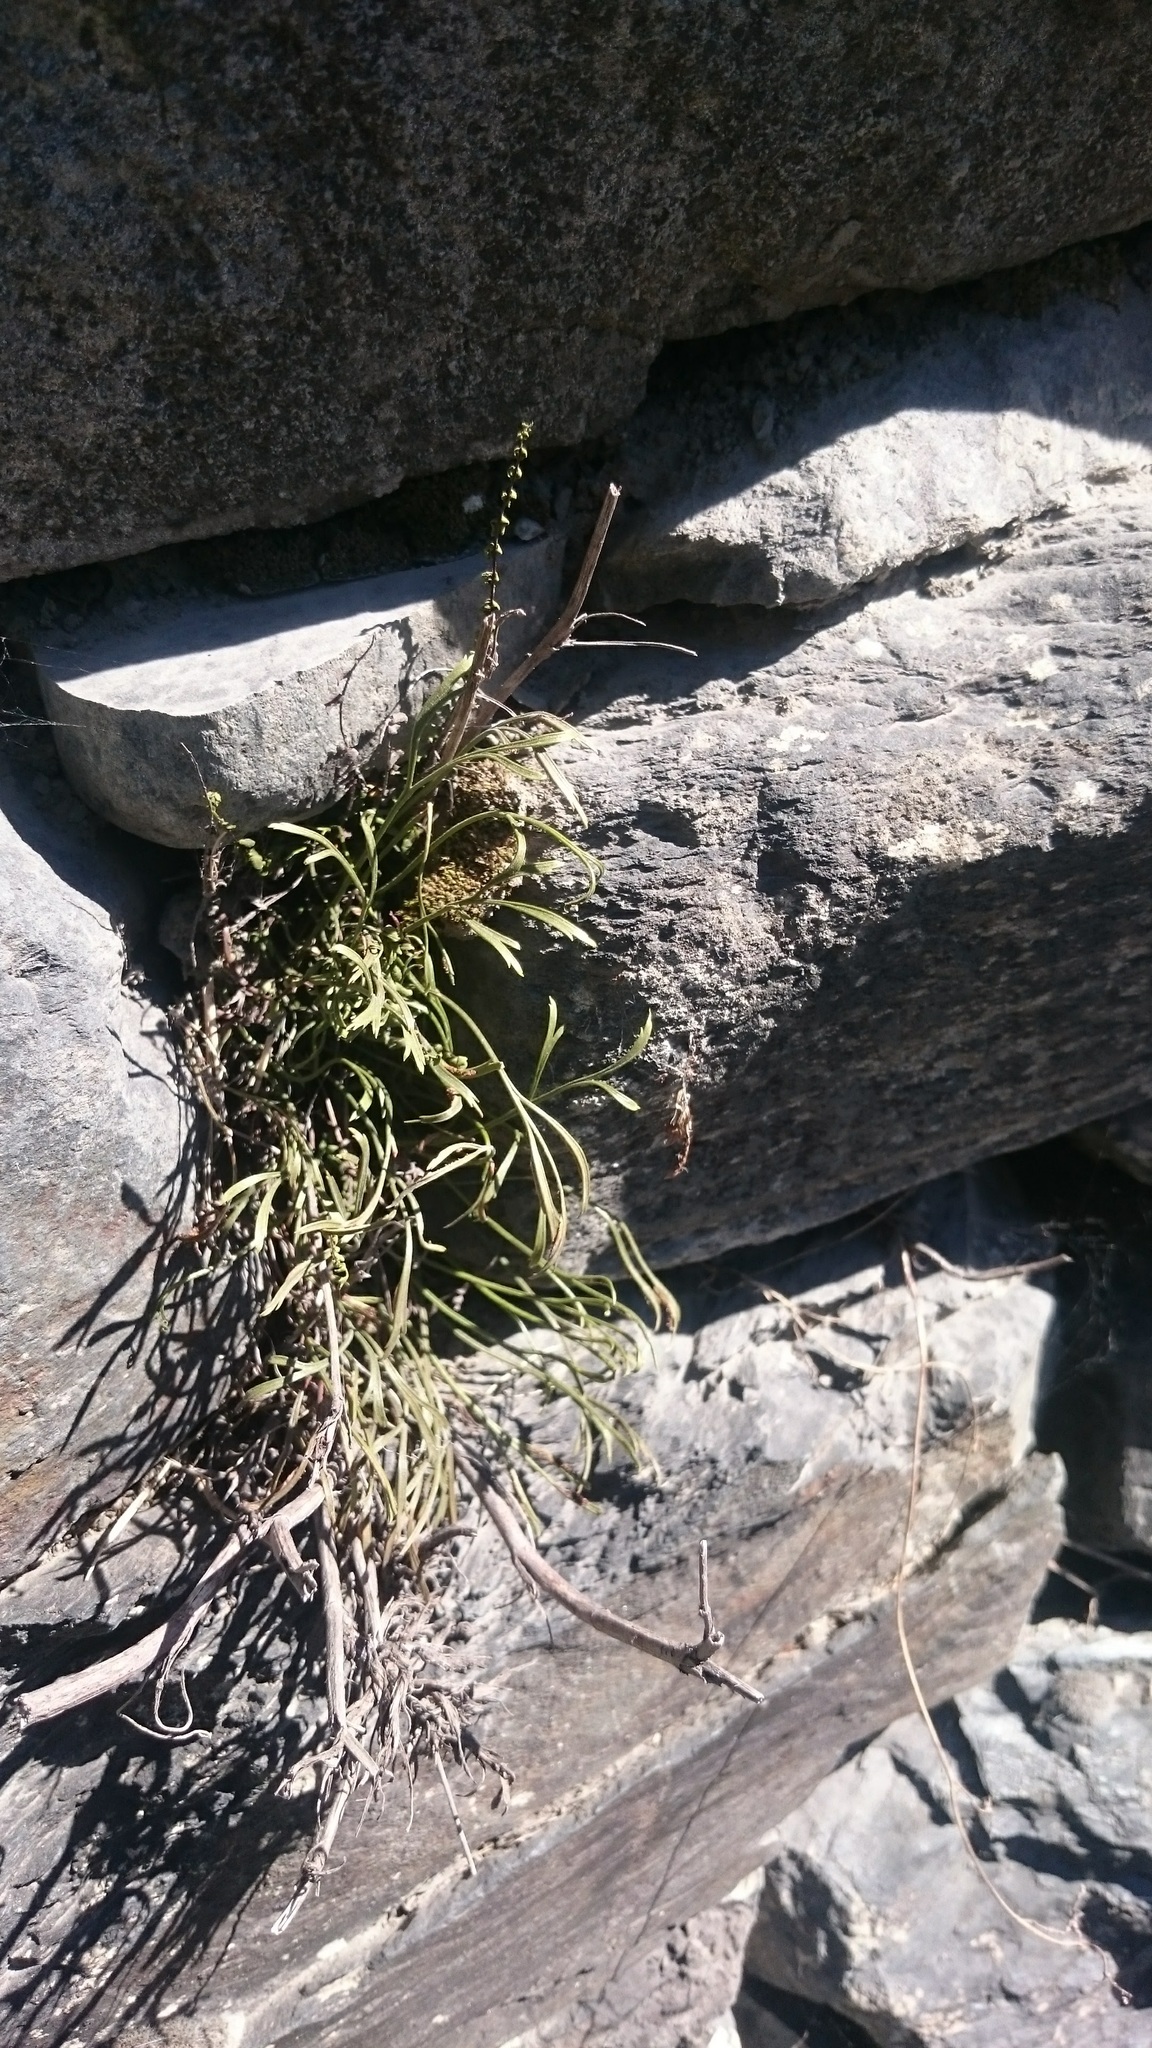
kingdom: Plantae
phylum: Tracheophyta
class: Polypodiopsida
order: Polypodiales
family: Aspleniaceae
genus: Asplenium
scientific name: Asplenium septentrionale
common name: Forked spleenwort
